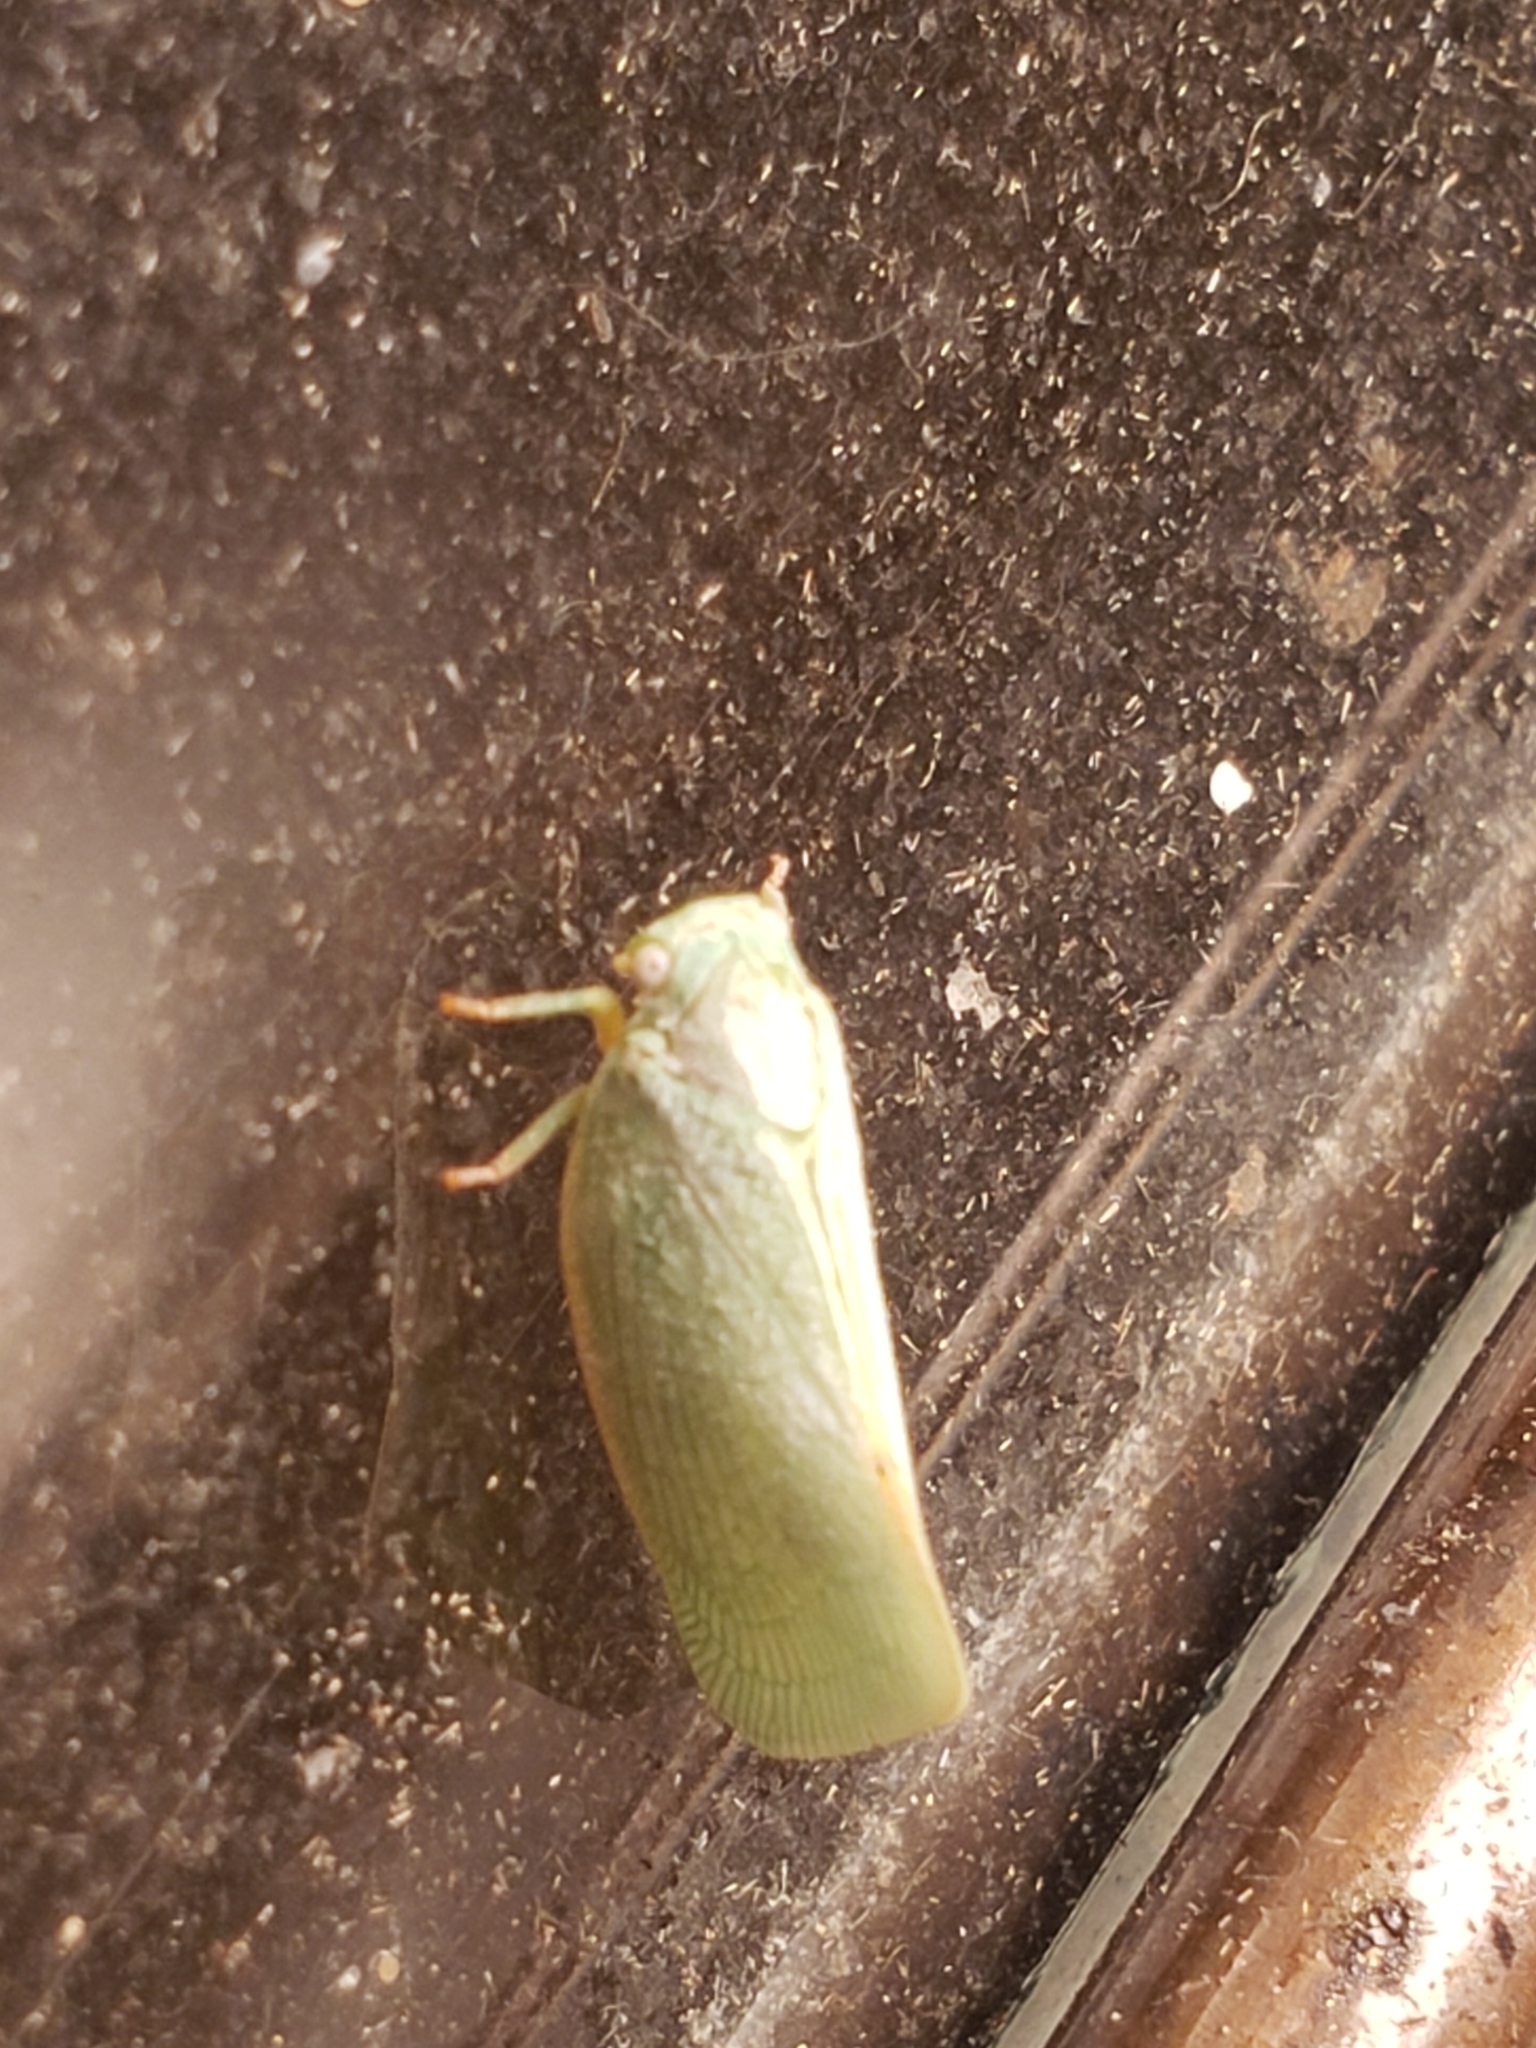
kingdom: Animalia
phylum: Arthropoda
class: Insecta
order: Hemiptera
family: Flatidae
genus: Flatormenis
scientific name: Flatormenis proxima
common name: Northern flatid planthopper
